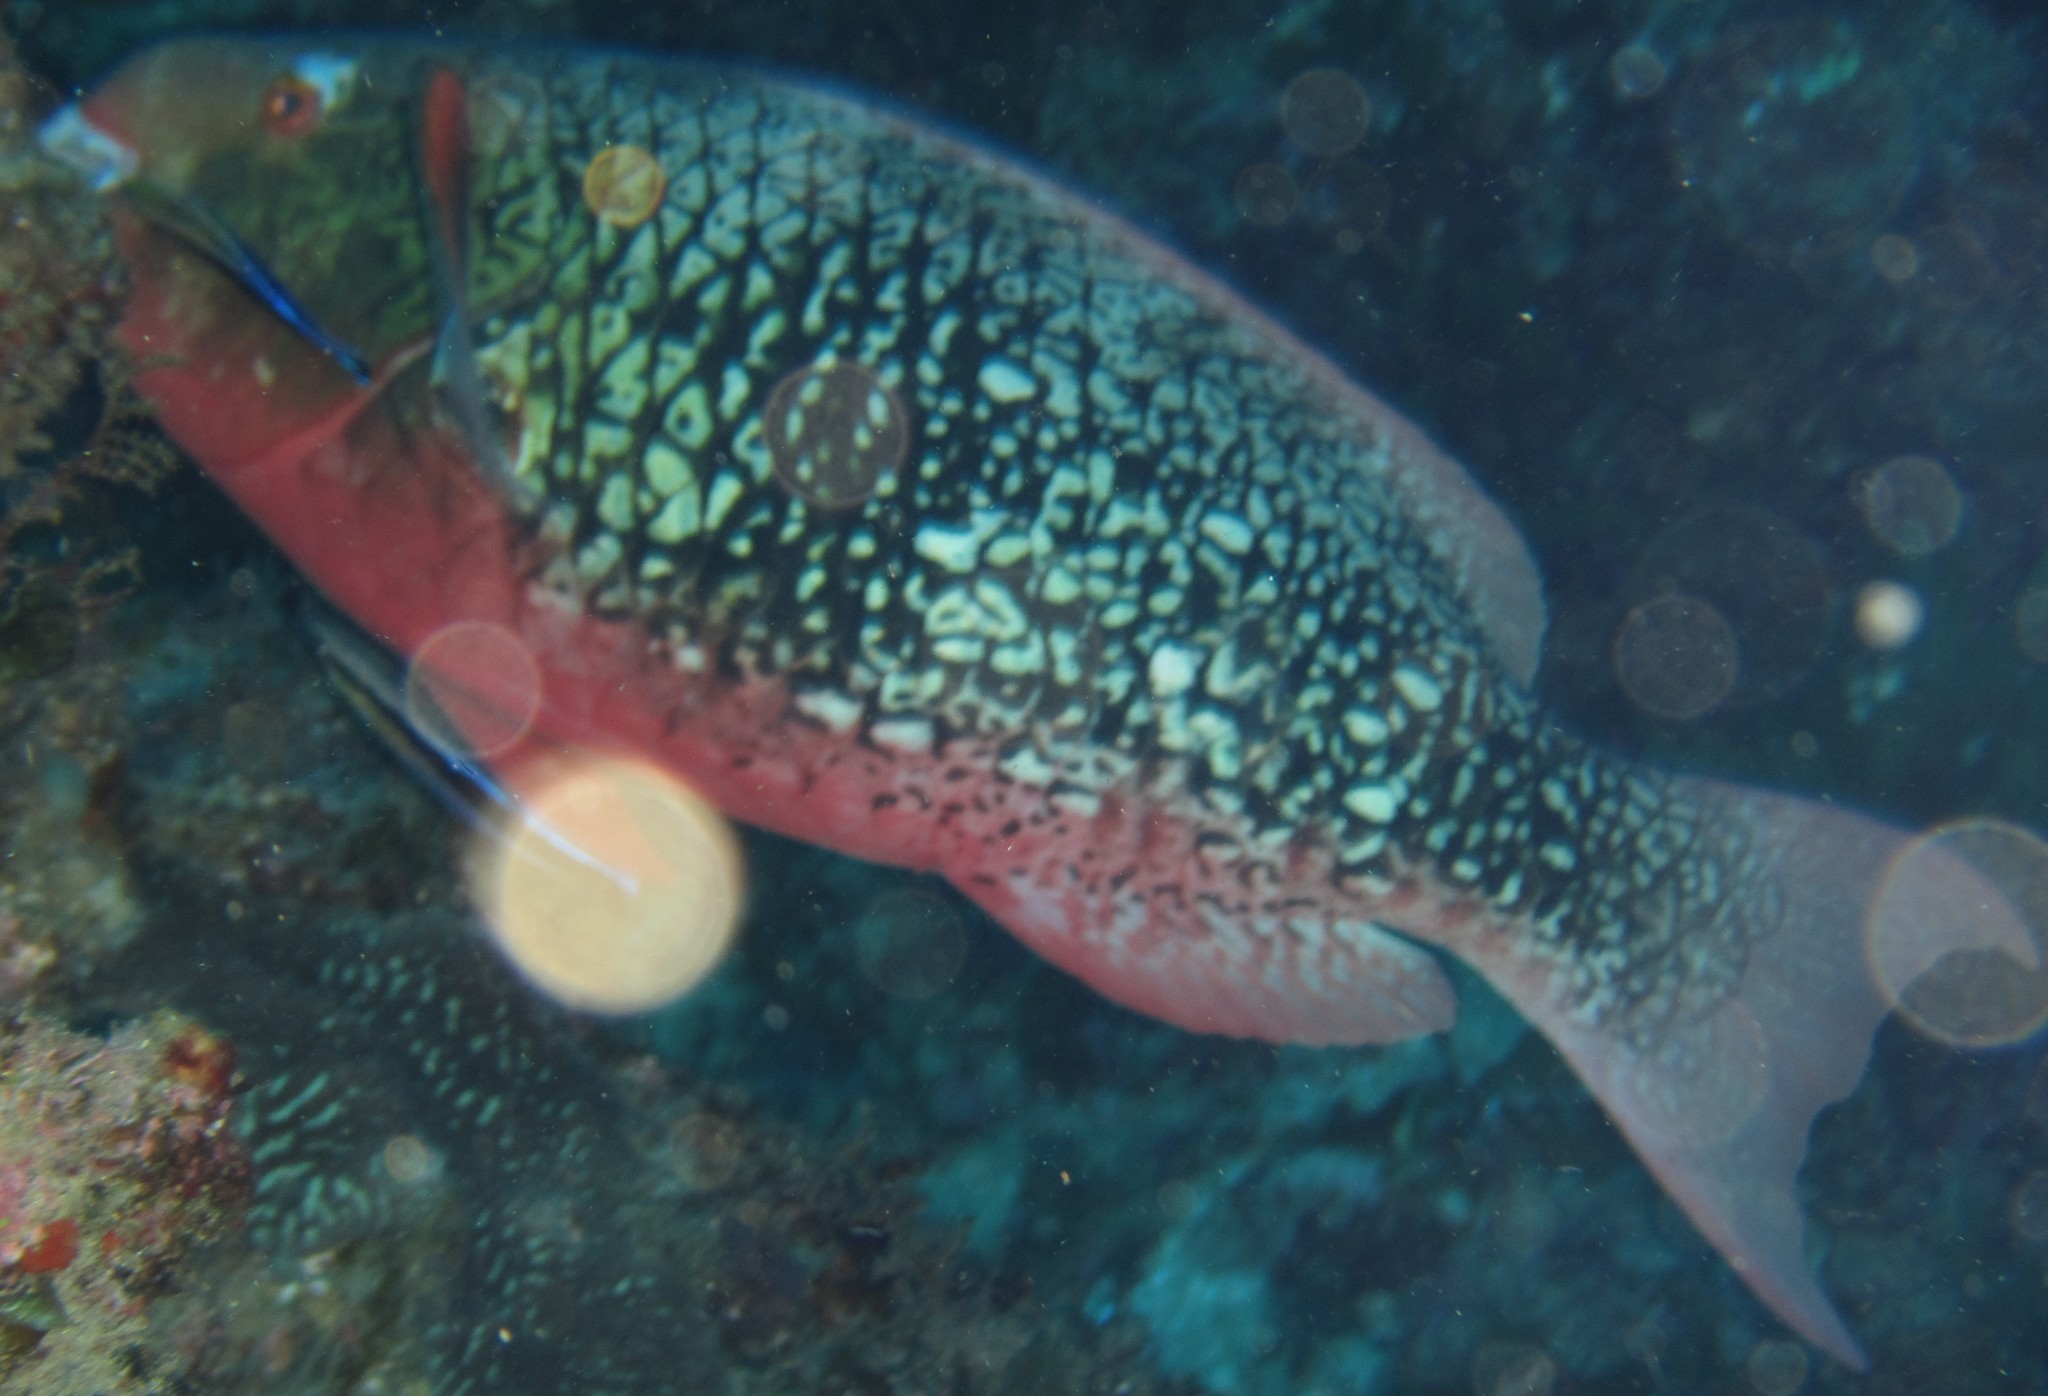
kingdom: Animalia
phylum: Chordata
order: Perciformes
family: Scaridae
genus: Scarus
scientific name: Scarus rubroviolaceus
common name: Ember parrotfish
